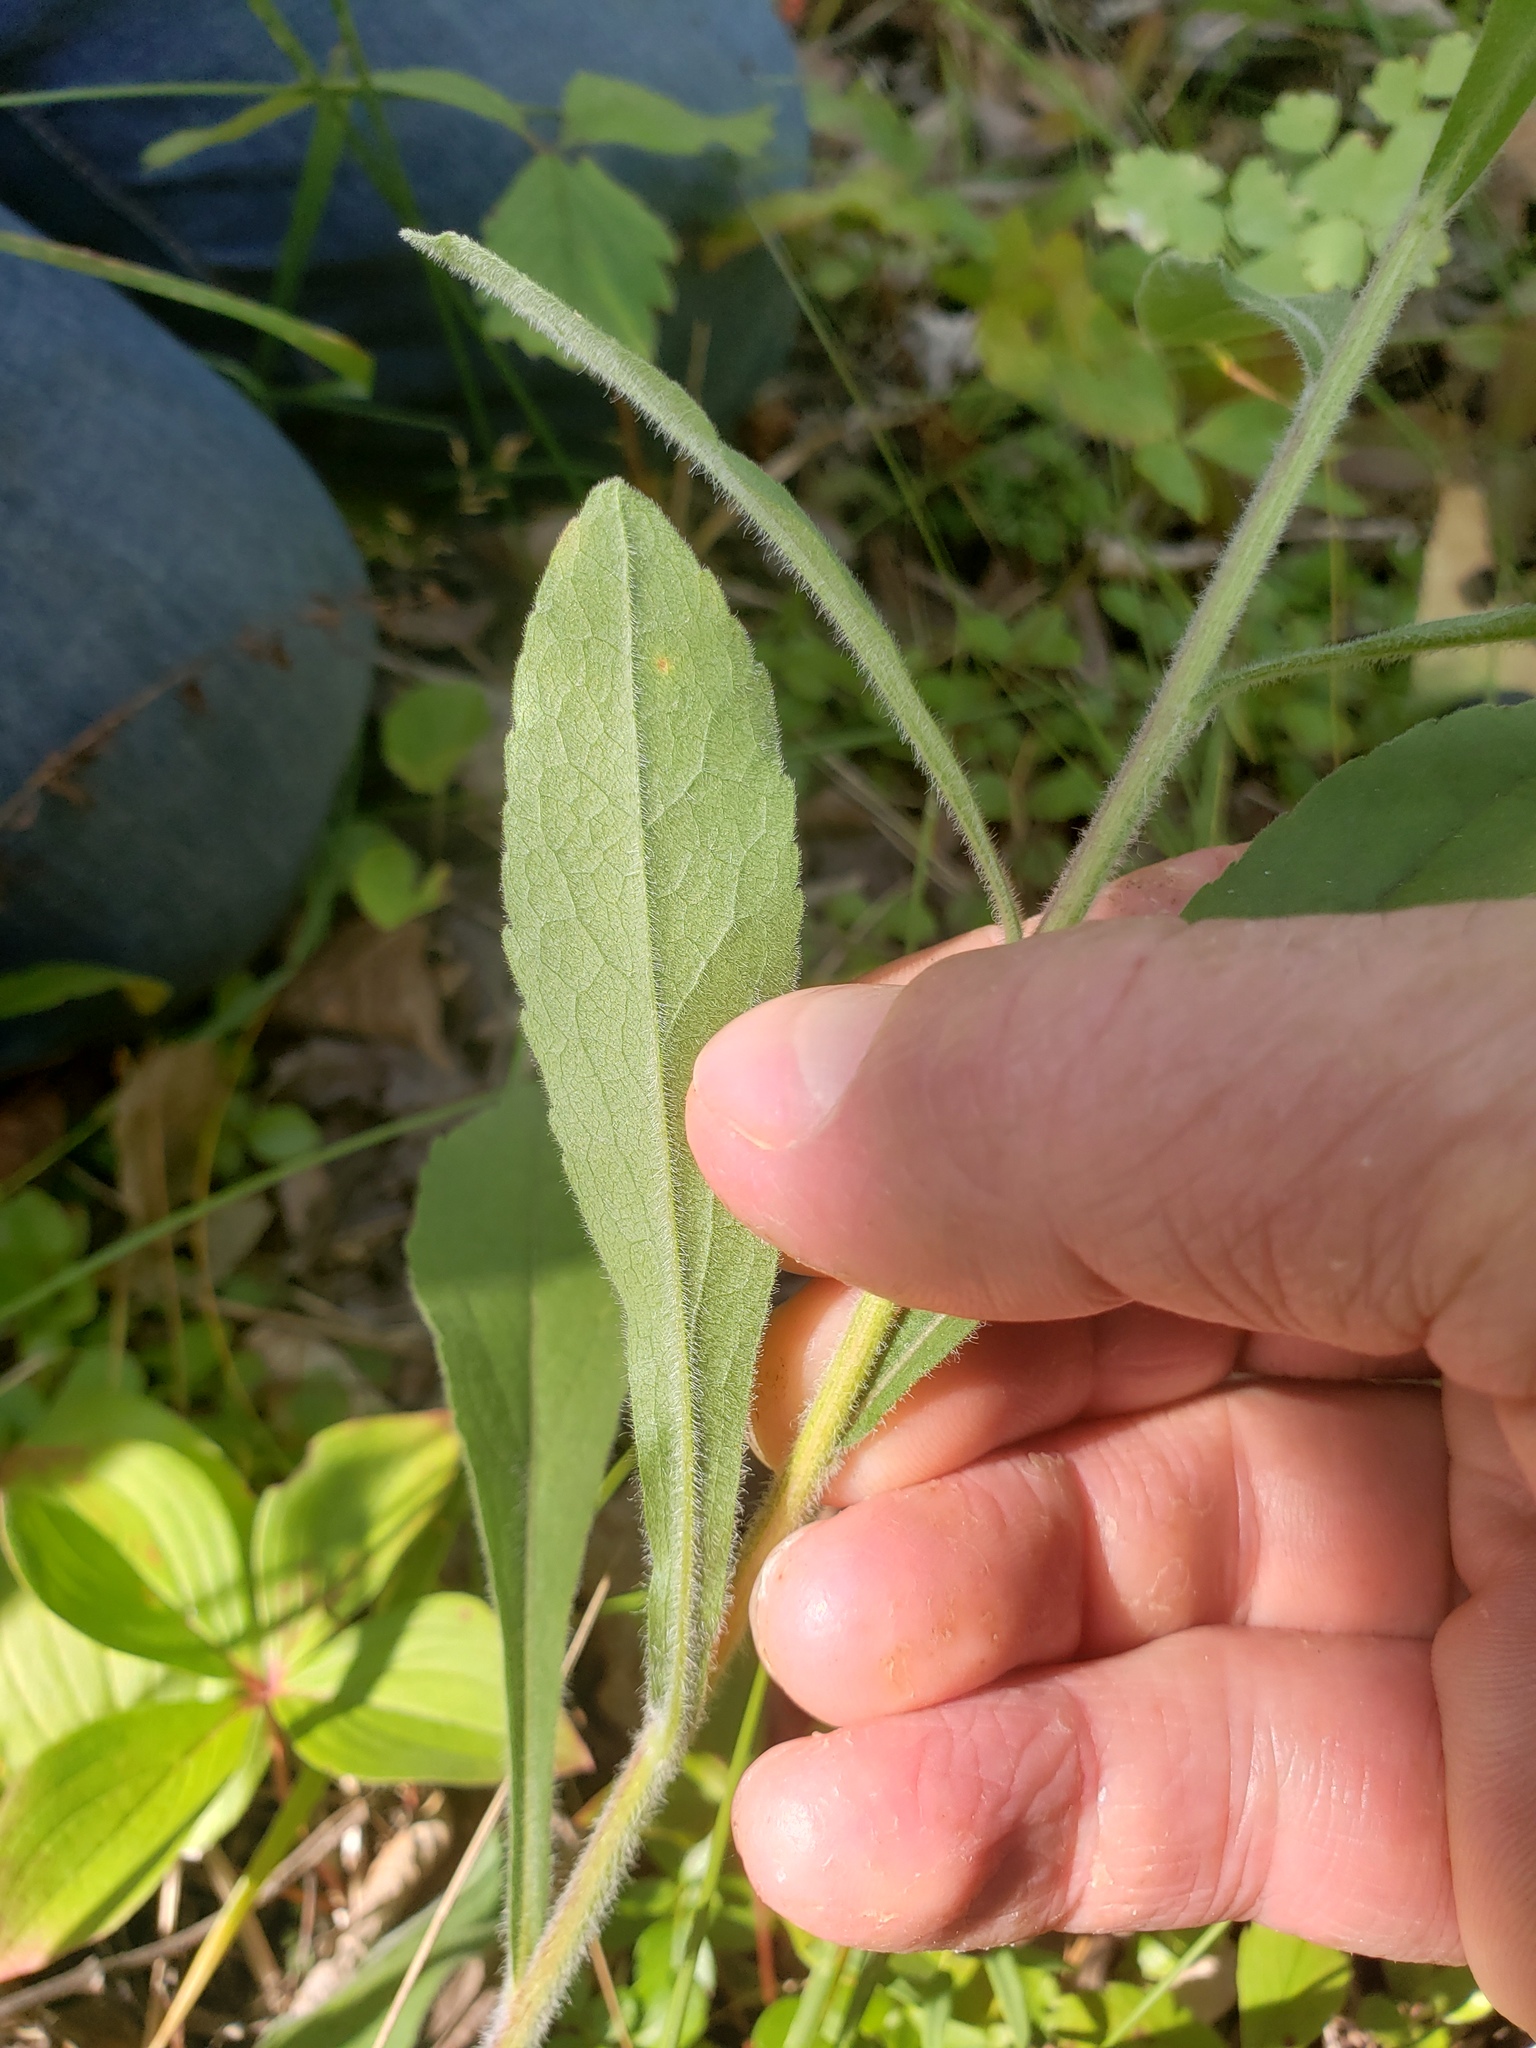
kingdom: Plantae
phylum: Tracheophyta
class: Magnoliopsida
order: Asterales
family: Asteraceae
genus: Solidago
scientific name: Solidago hispida
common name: Hairy goldenrod
